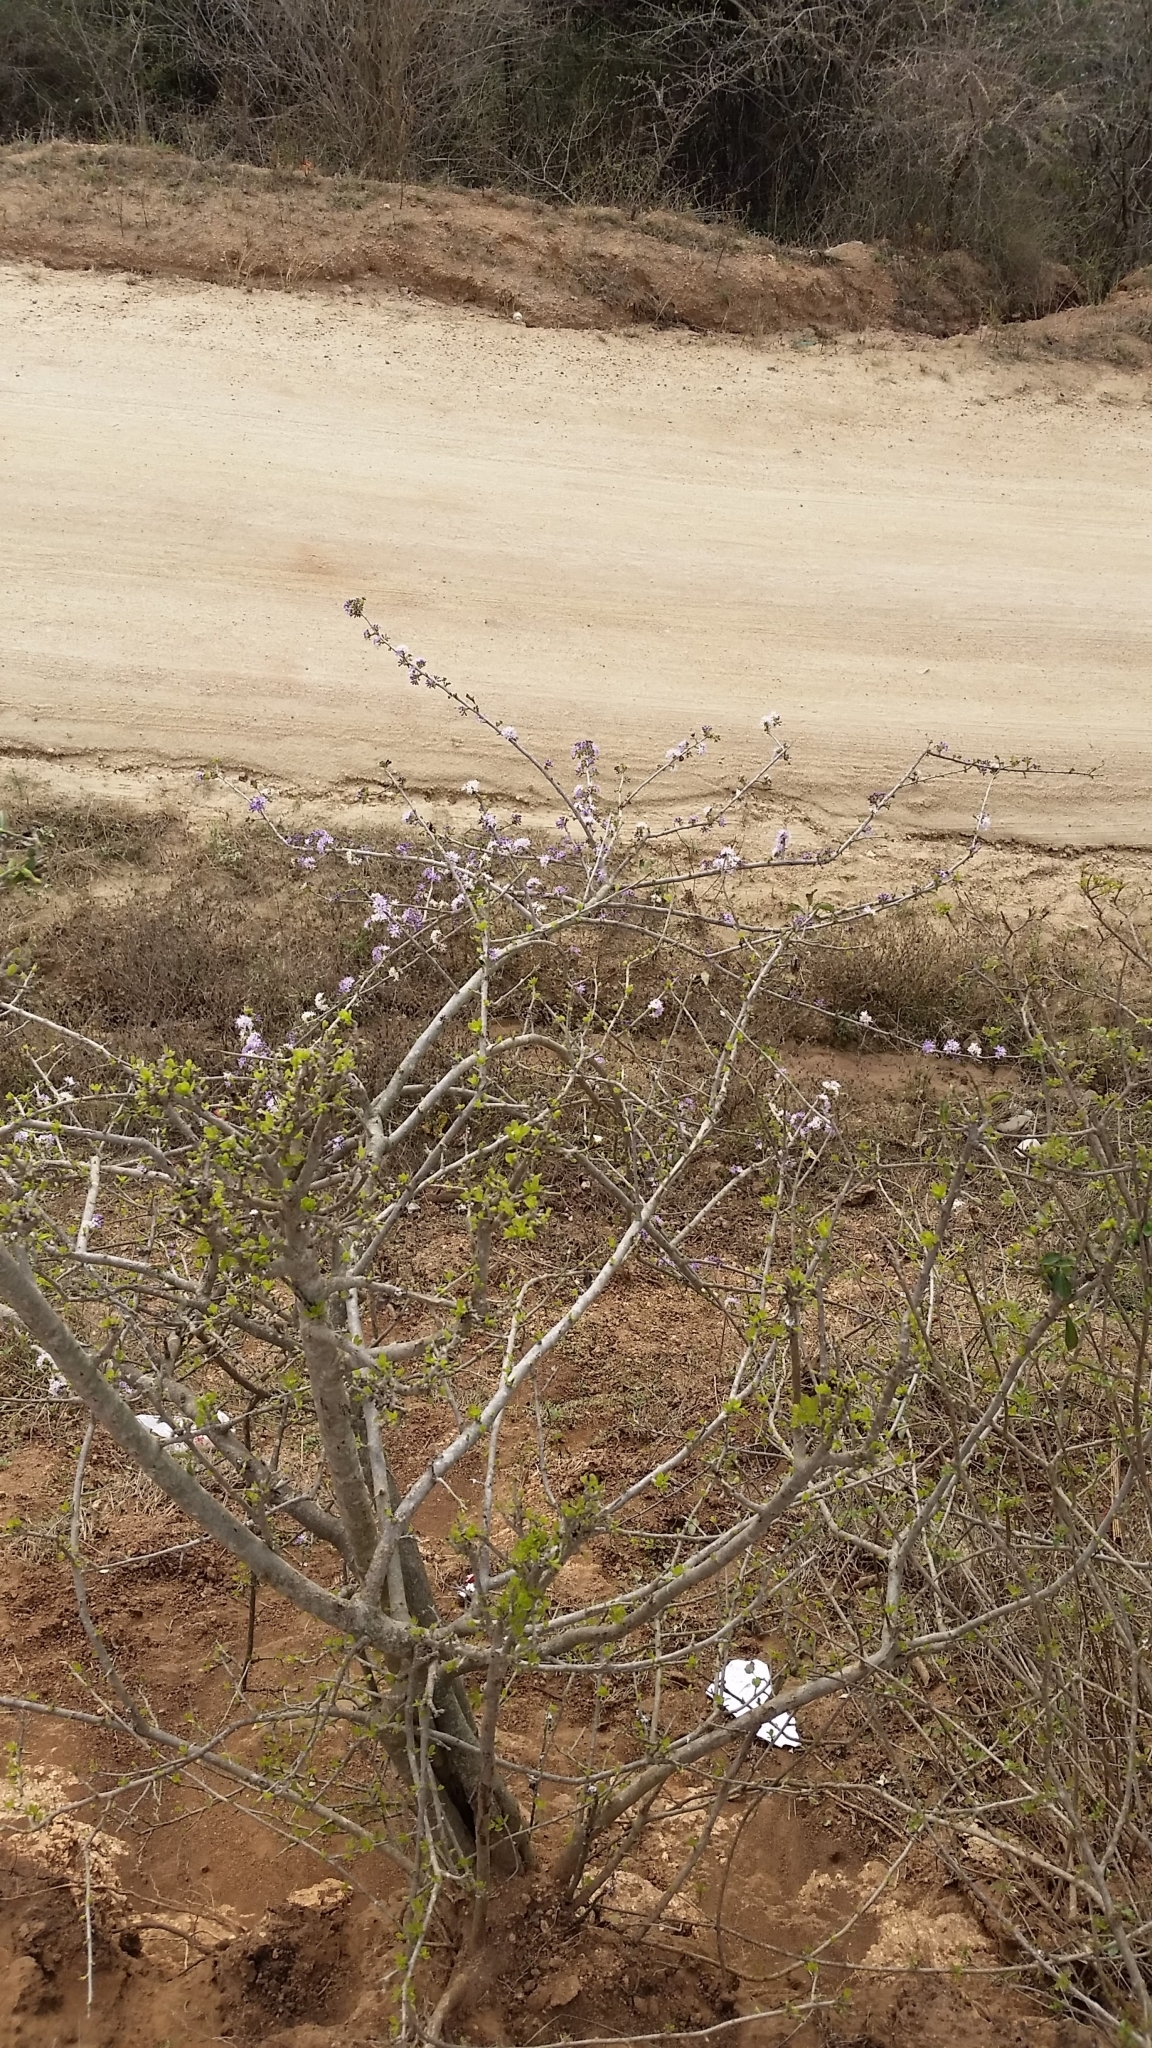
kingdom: Plantae
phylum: Tracheophyta
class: Magnoliopsida
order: Boraginales
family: Ehretiaceae
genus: Ehretia
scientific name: Ehretia rigida
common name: Cape lilac
